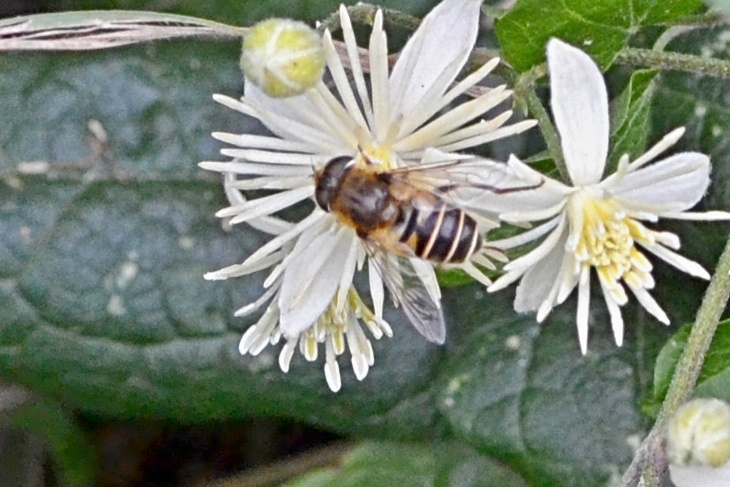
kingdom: Animalia
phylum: Arthropoda
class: Insecta
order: Diptera
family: Syrphidae
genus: Eristalis
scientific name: Eristalis nemorum
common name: Orange-spined drone fly
